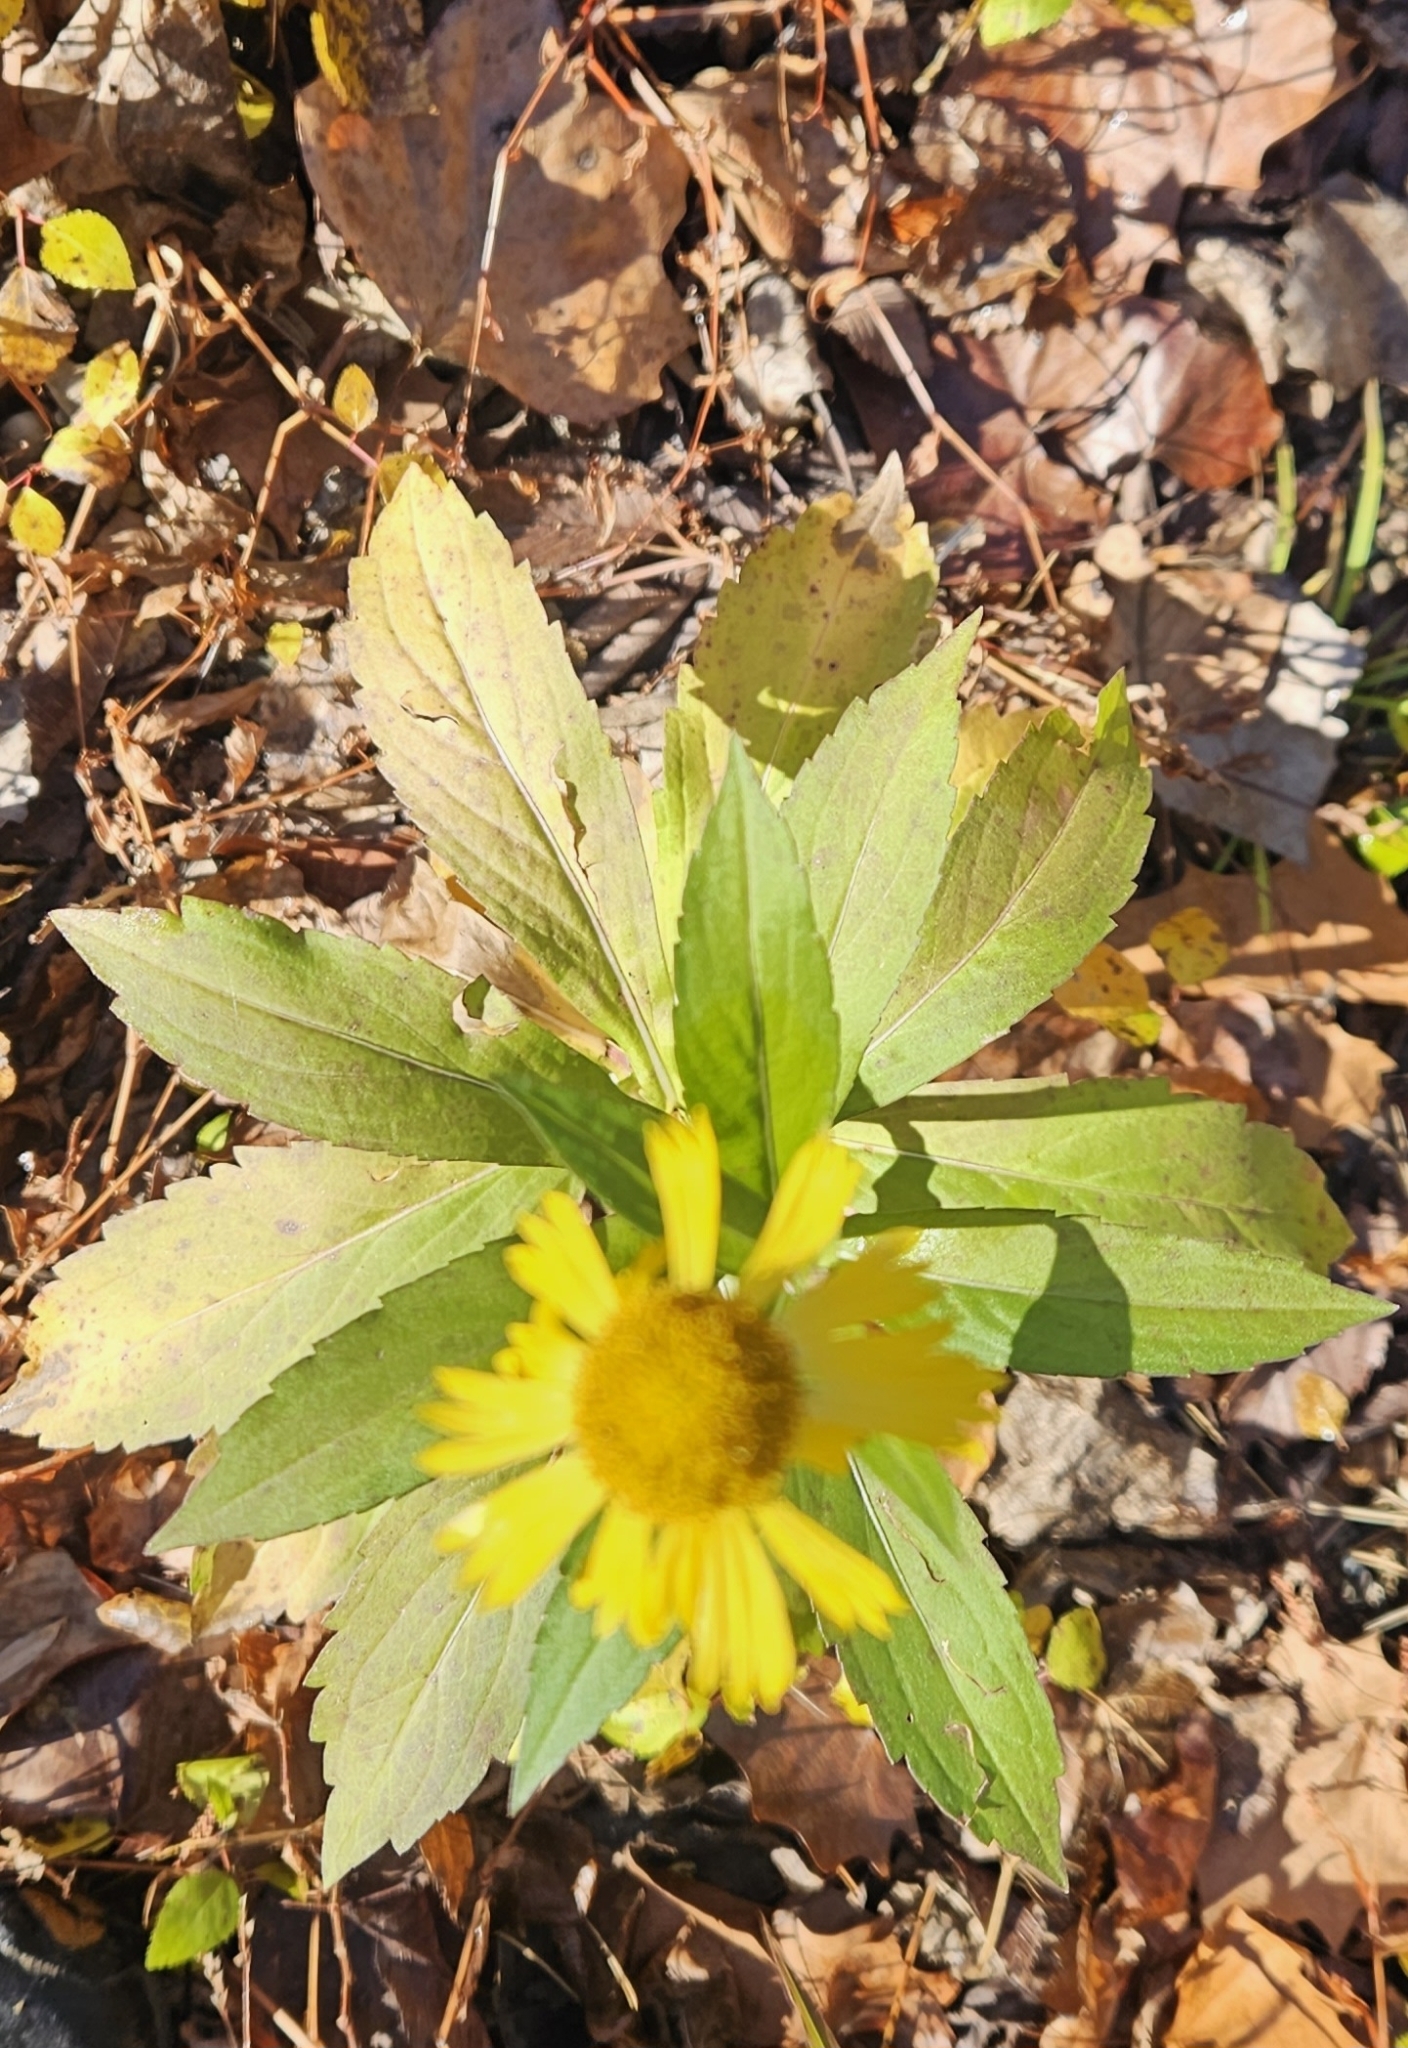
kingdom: Plantae
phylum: Tracheophyta
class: Magnoliopsida
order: Asterales
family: Asteraceae
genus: Helenium
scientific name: Helenium autumnale
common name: Sneezeweed
